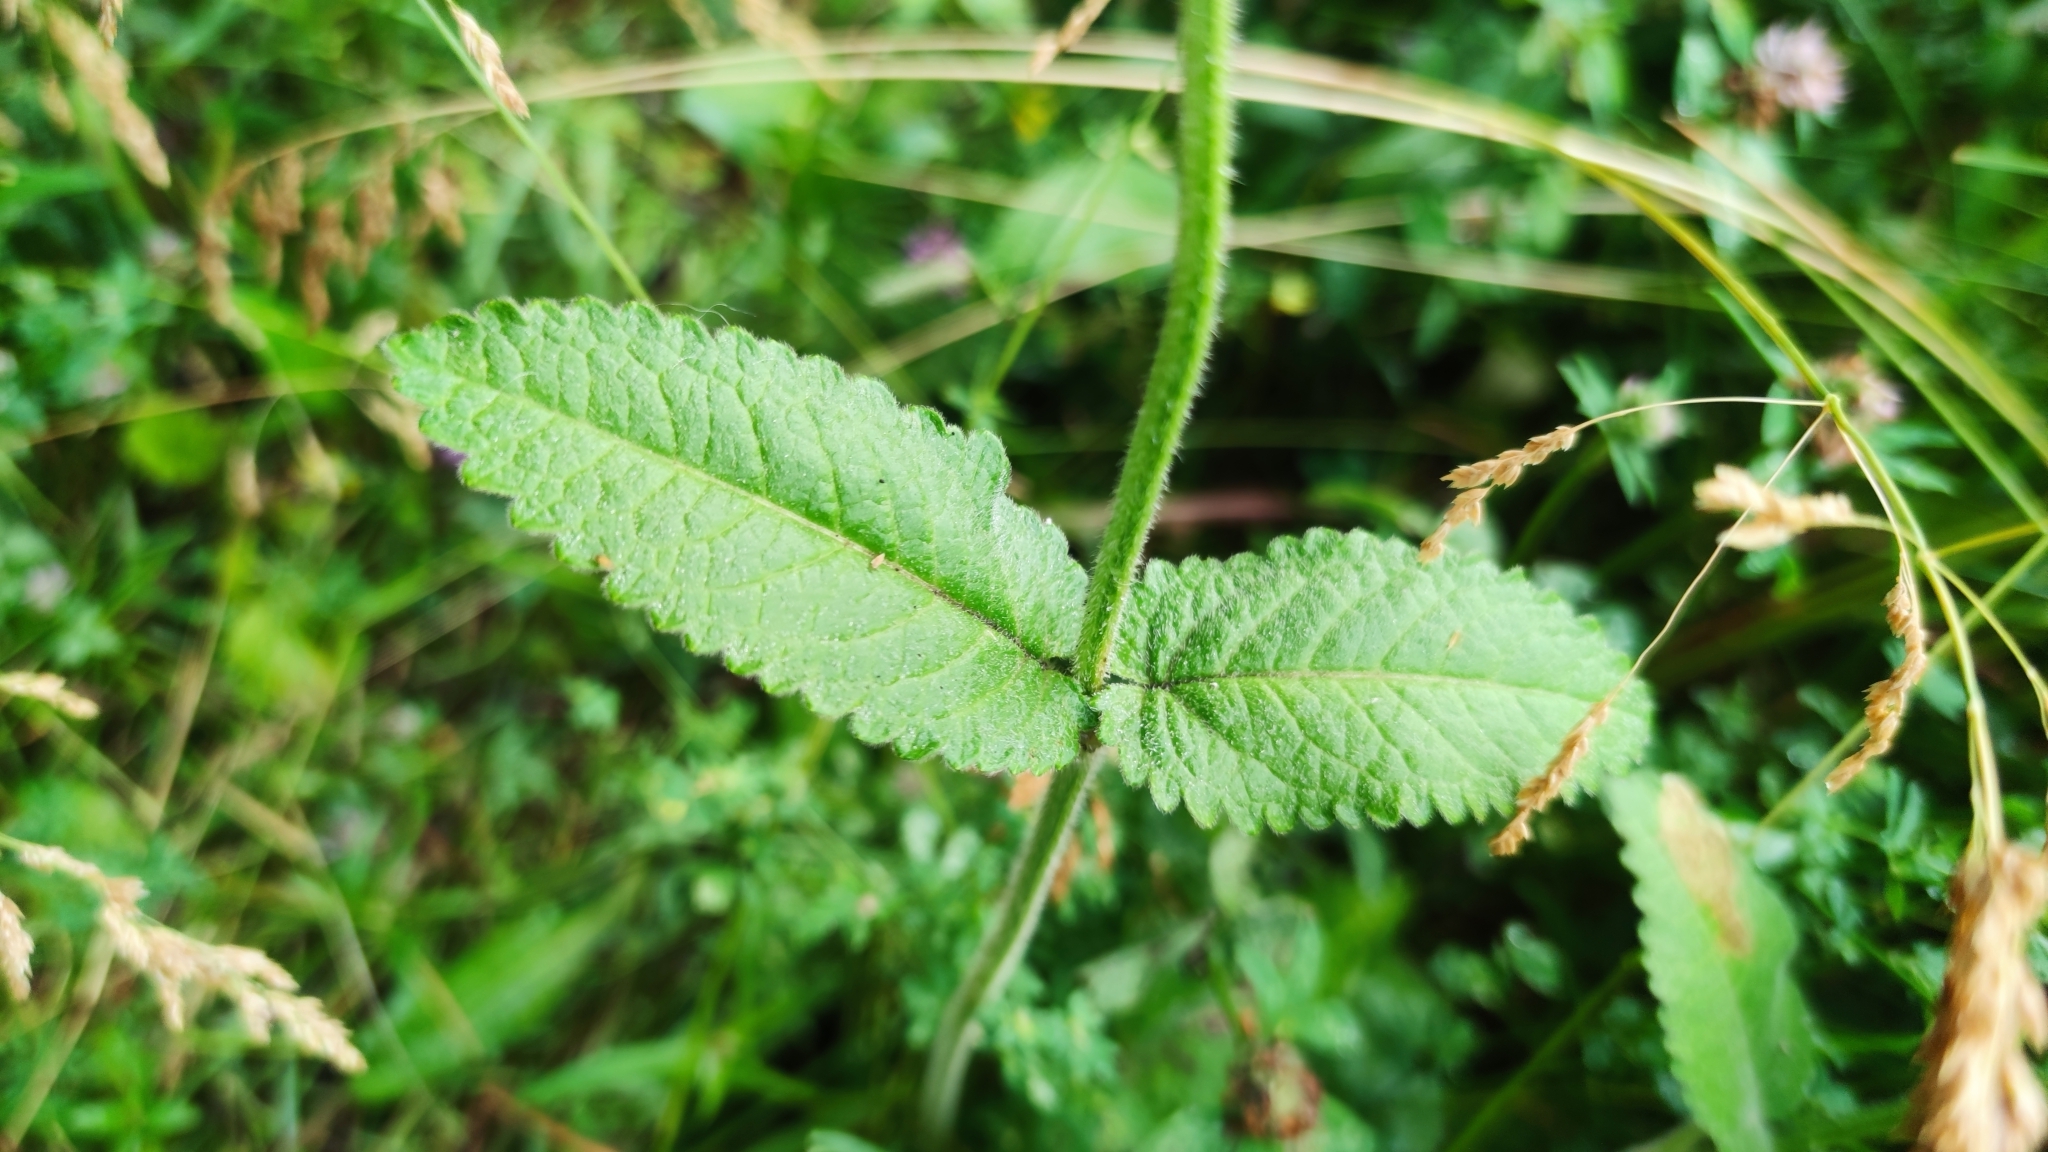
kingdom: Plantae
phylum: Tracheophyta
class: Magnoliopsida
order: Lamiales
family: Lamiaceae
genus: Betonica
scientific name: Betonica officinalis
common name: Bishop's-wort
